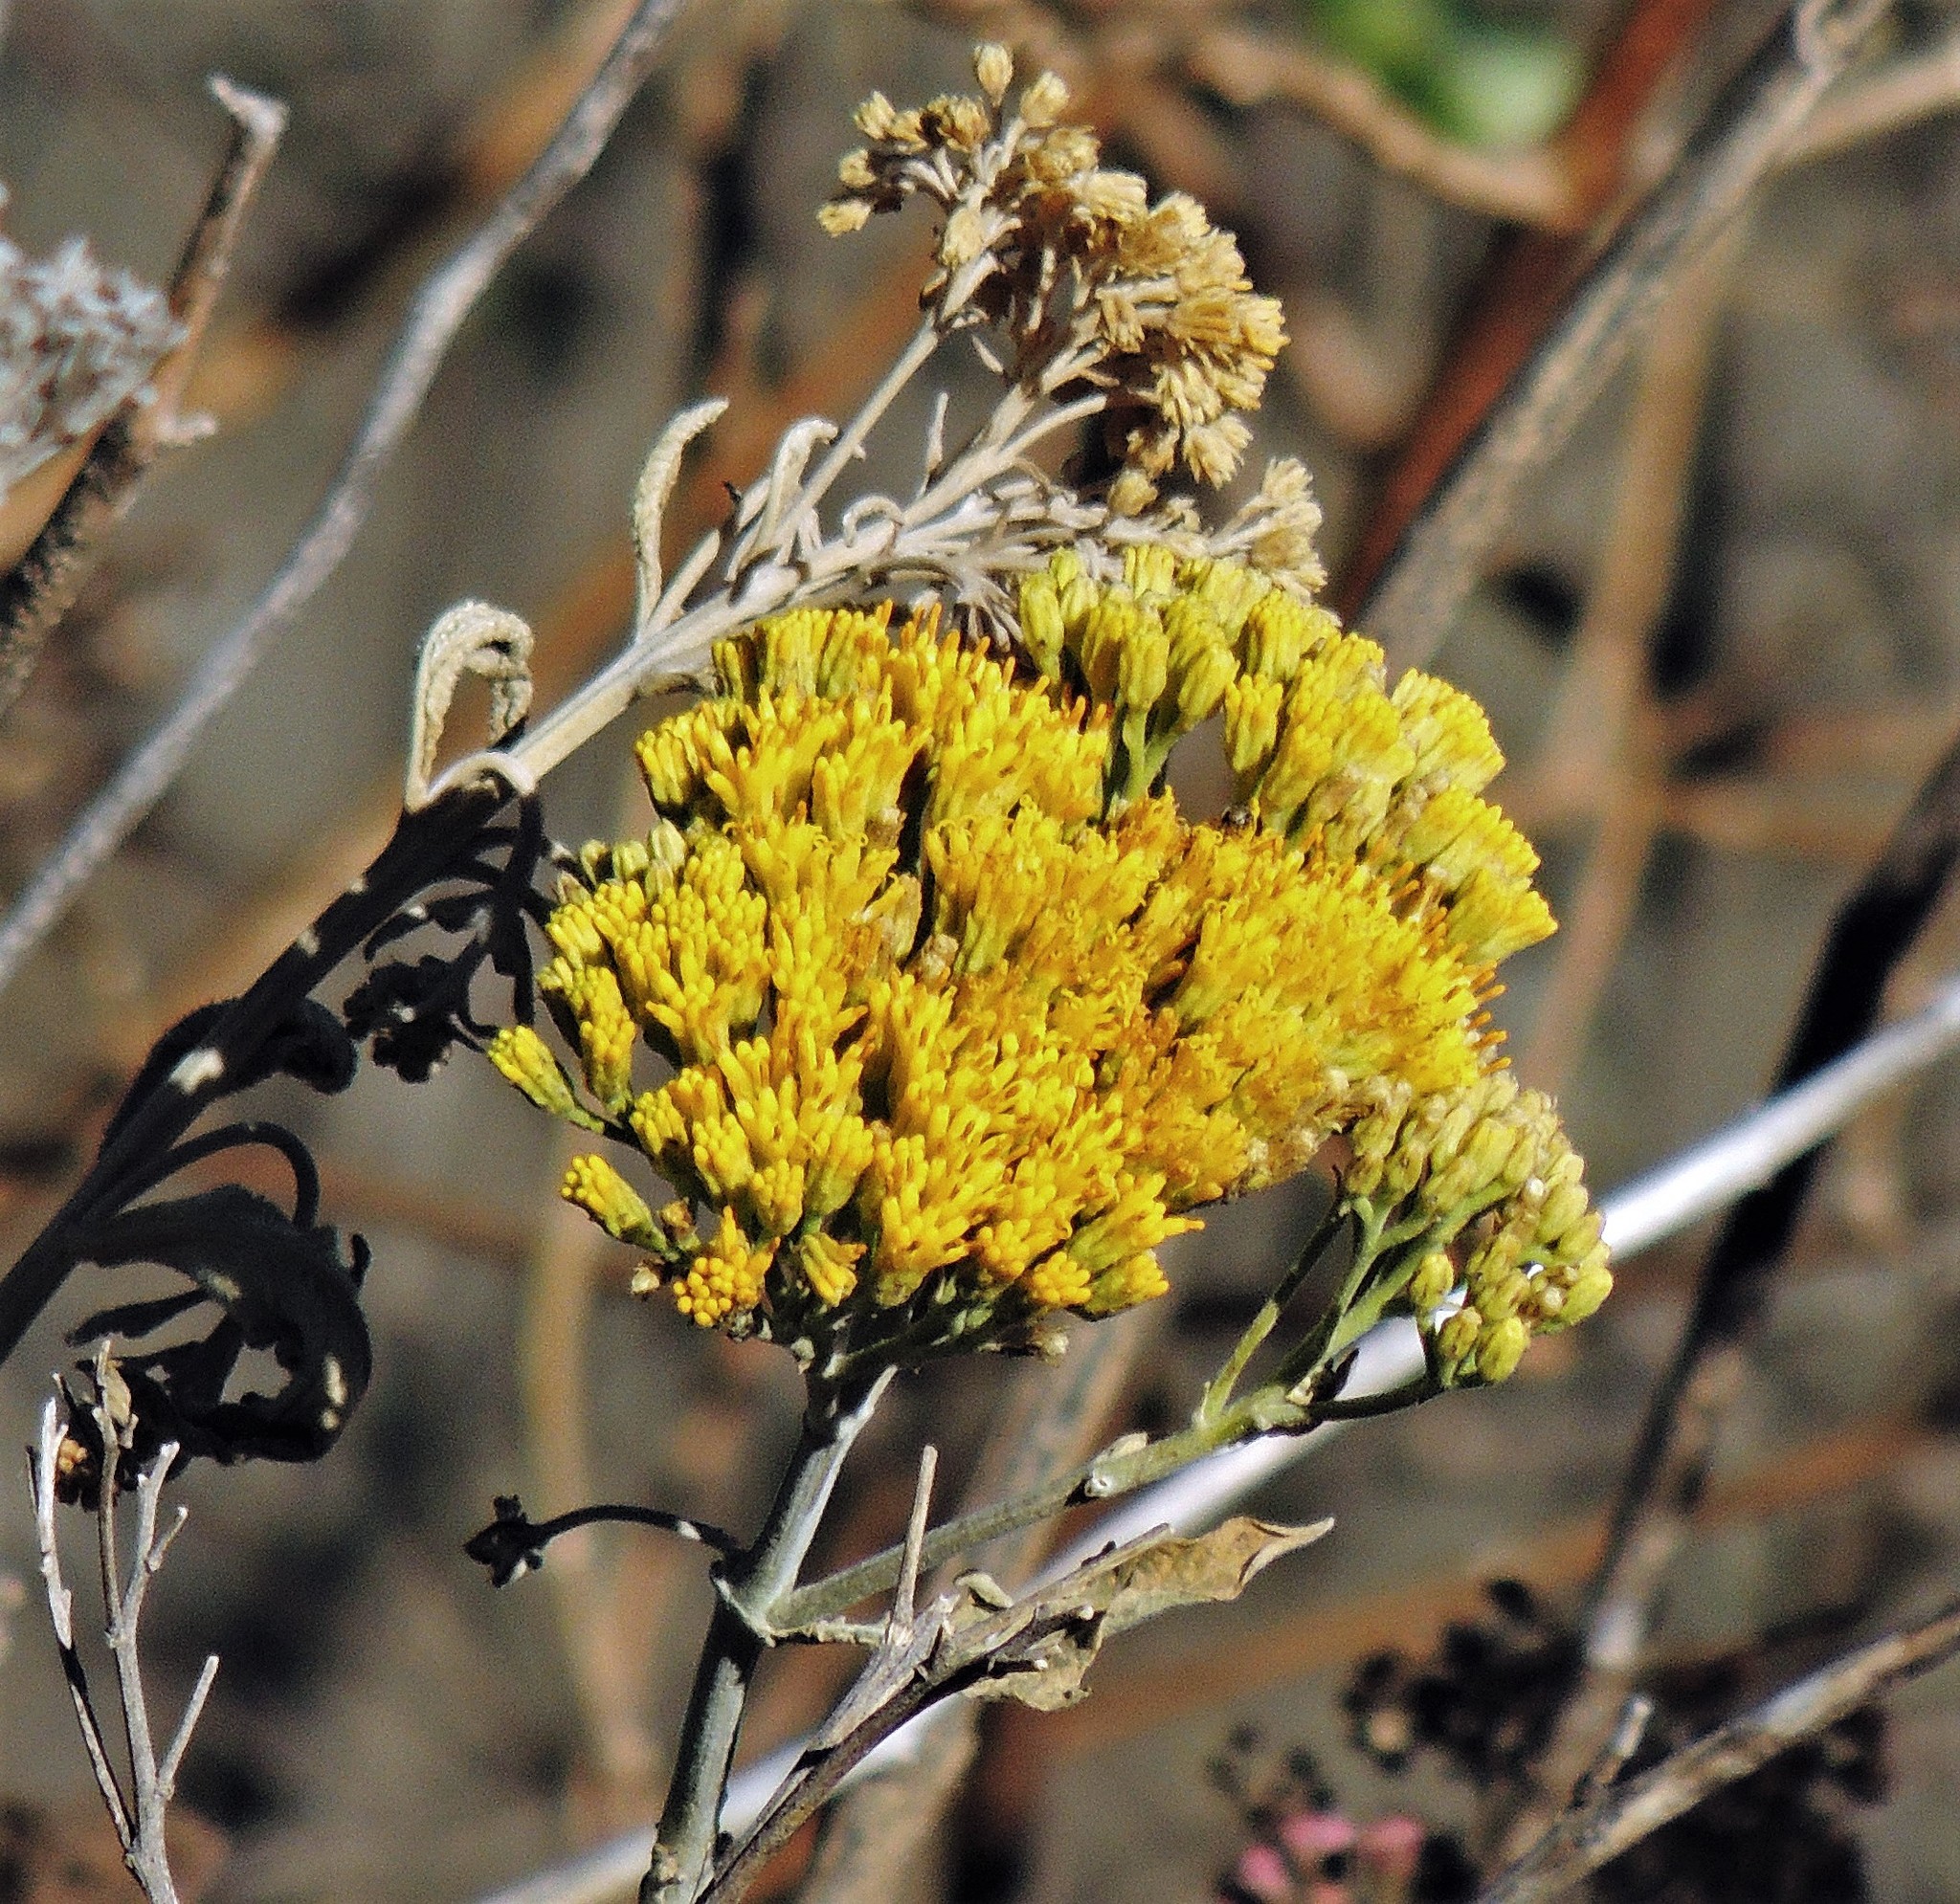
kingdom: Plantae
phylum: Tracheophyta
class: Magnoliopsida
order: Asterales
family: Asteraceae
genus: Verbesina
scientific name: Verbesina suncho
